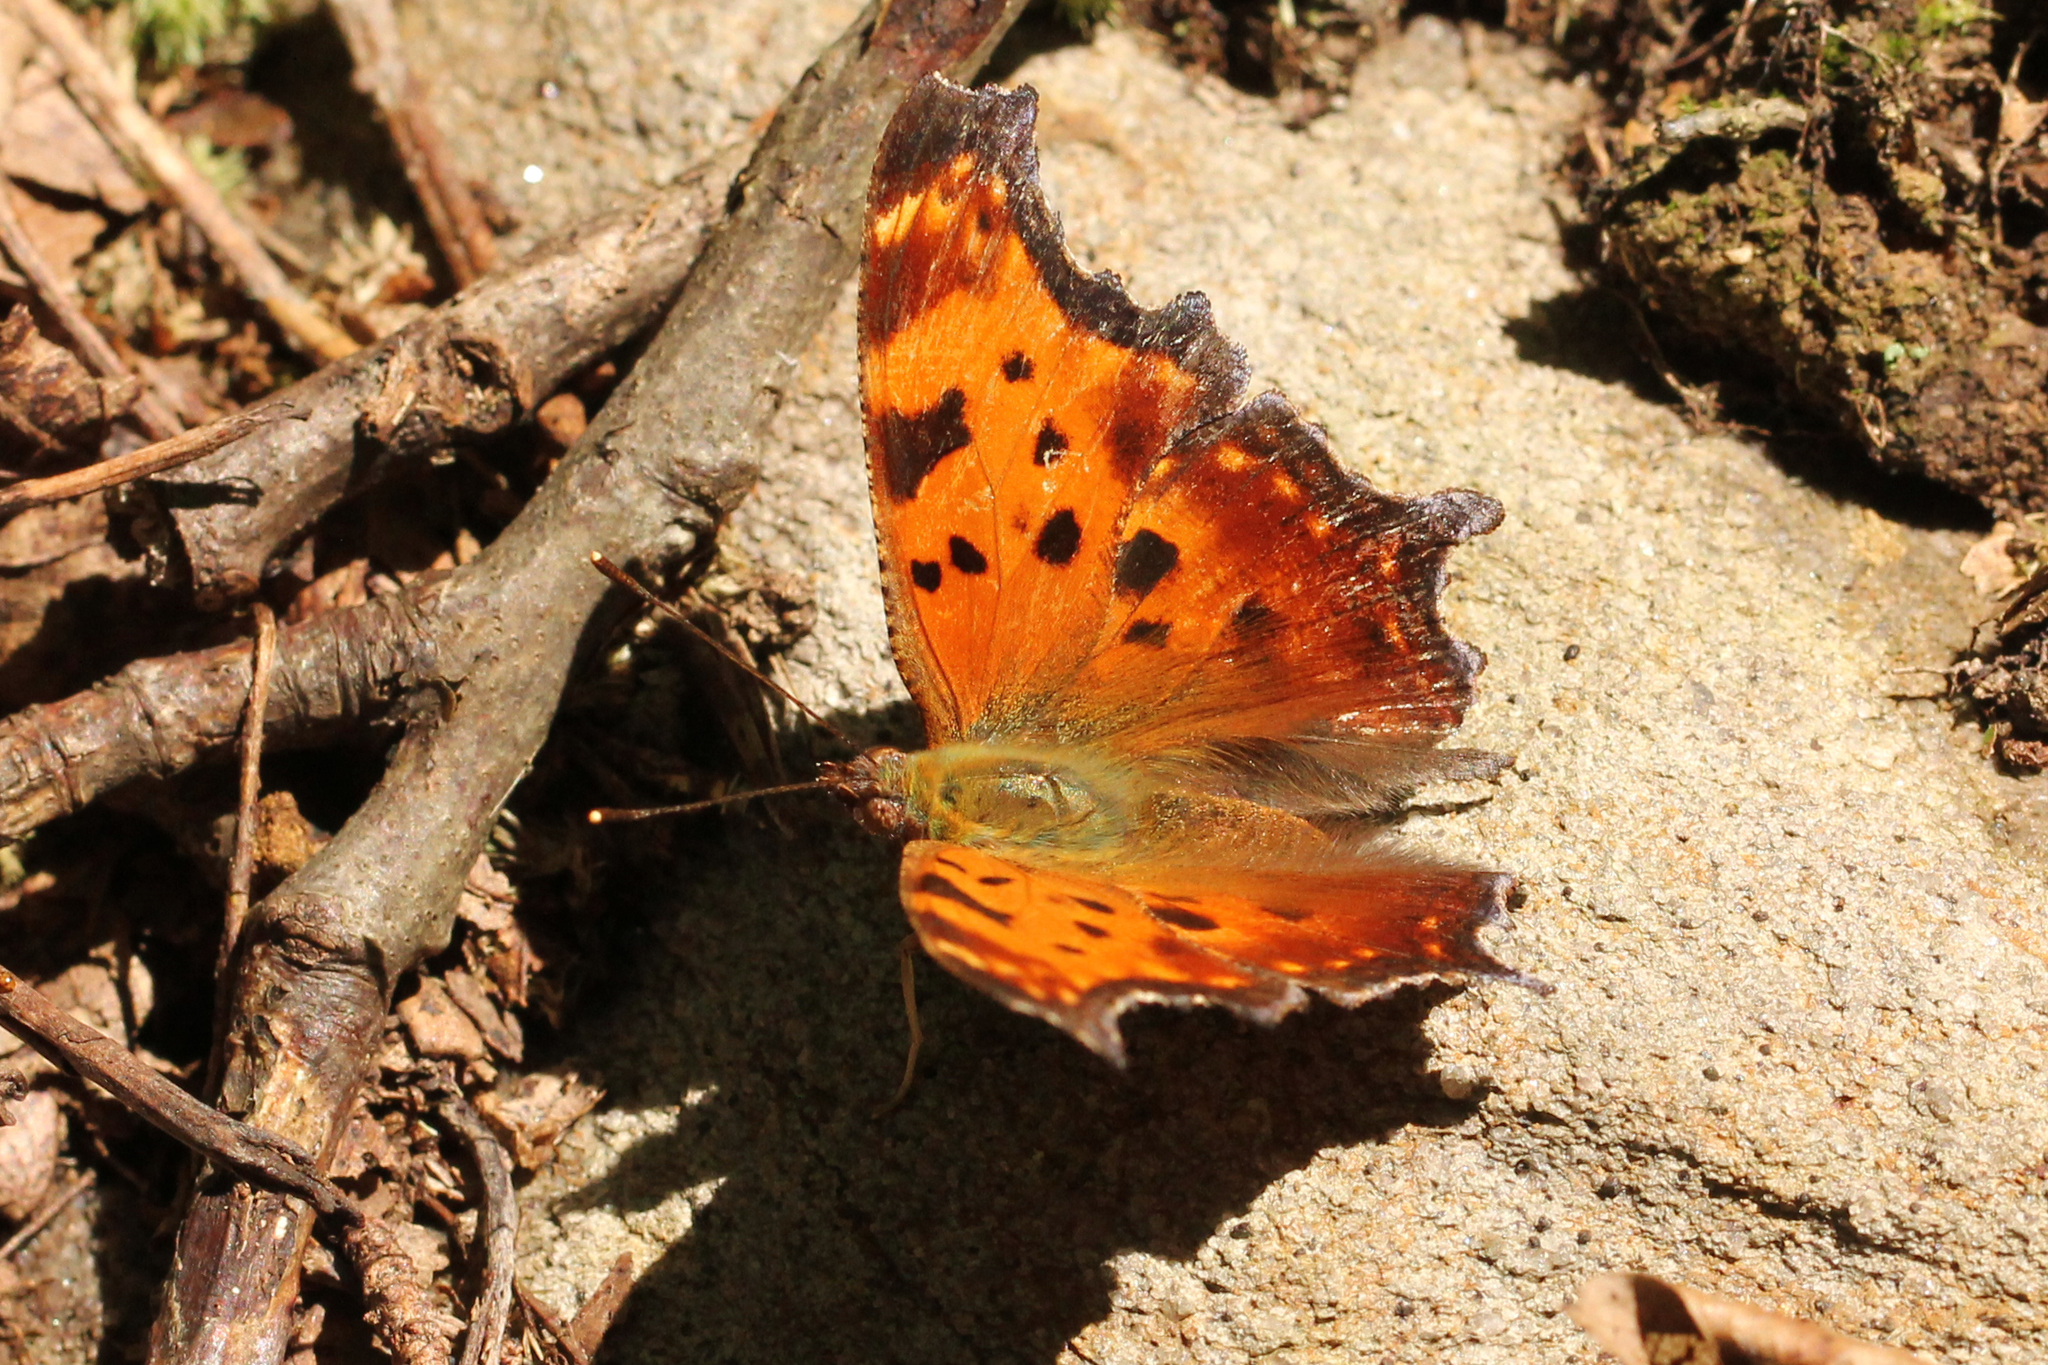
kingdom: Animalia
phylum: Arthropoda
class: Insecta
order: Lepidoptera
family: Nymphalidae
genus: Polygonia
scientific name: Polygonia comma
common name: Eastern comma
